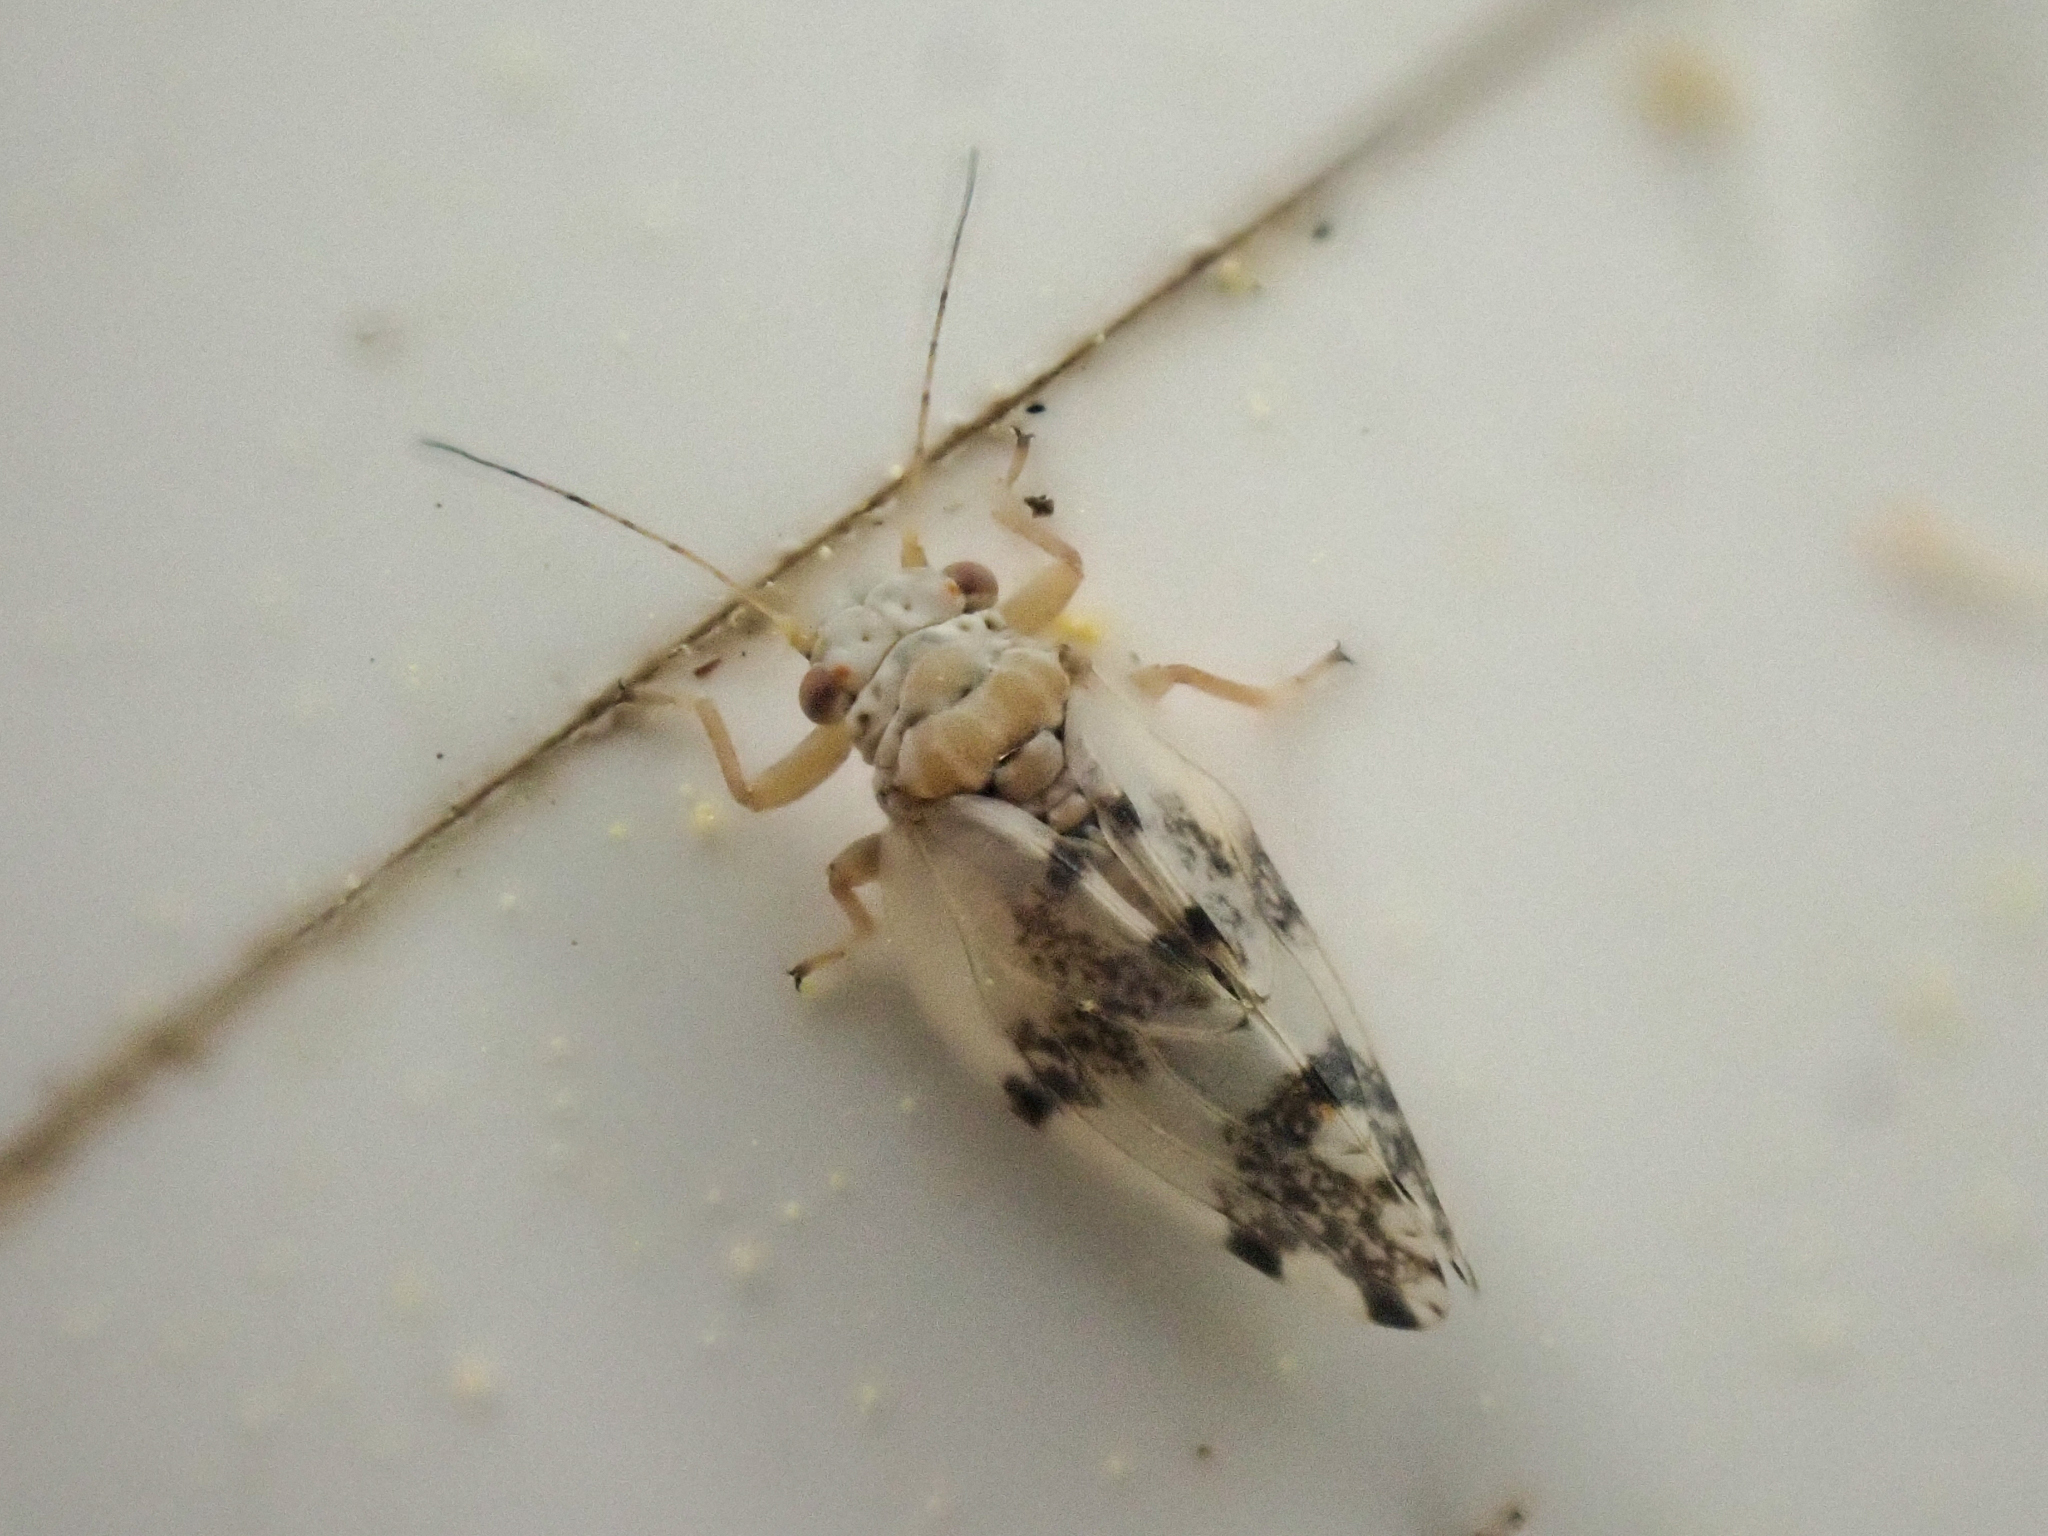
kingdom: Animalia
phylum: Arthropoda
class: Insecta
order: Hemiptera
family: Psyllidae
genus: Euglyptoneura
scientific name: Euglyptoneura robusta
